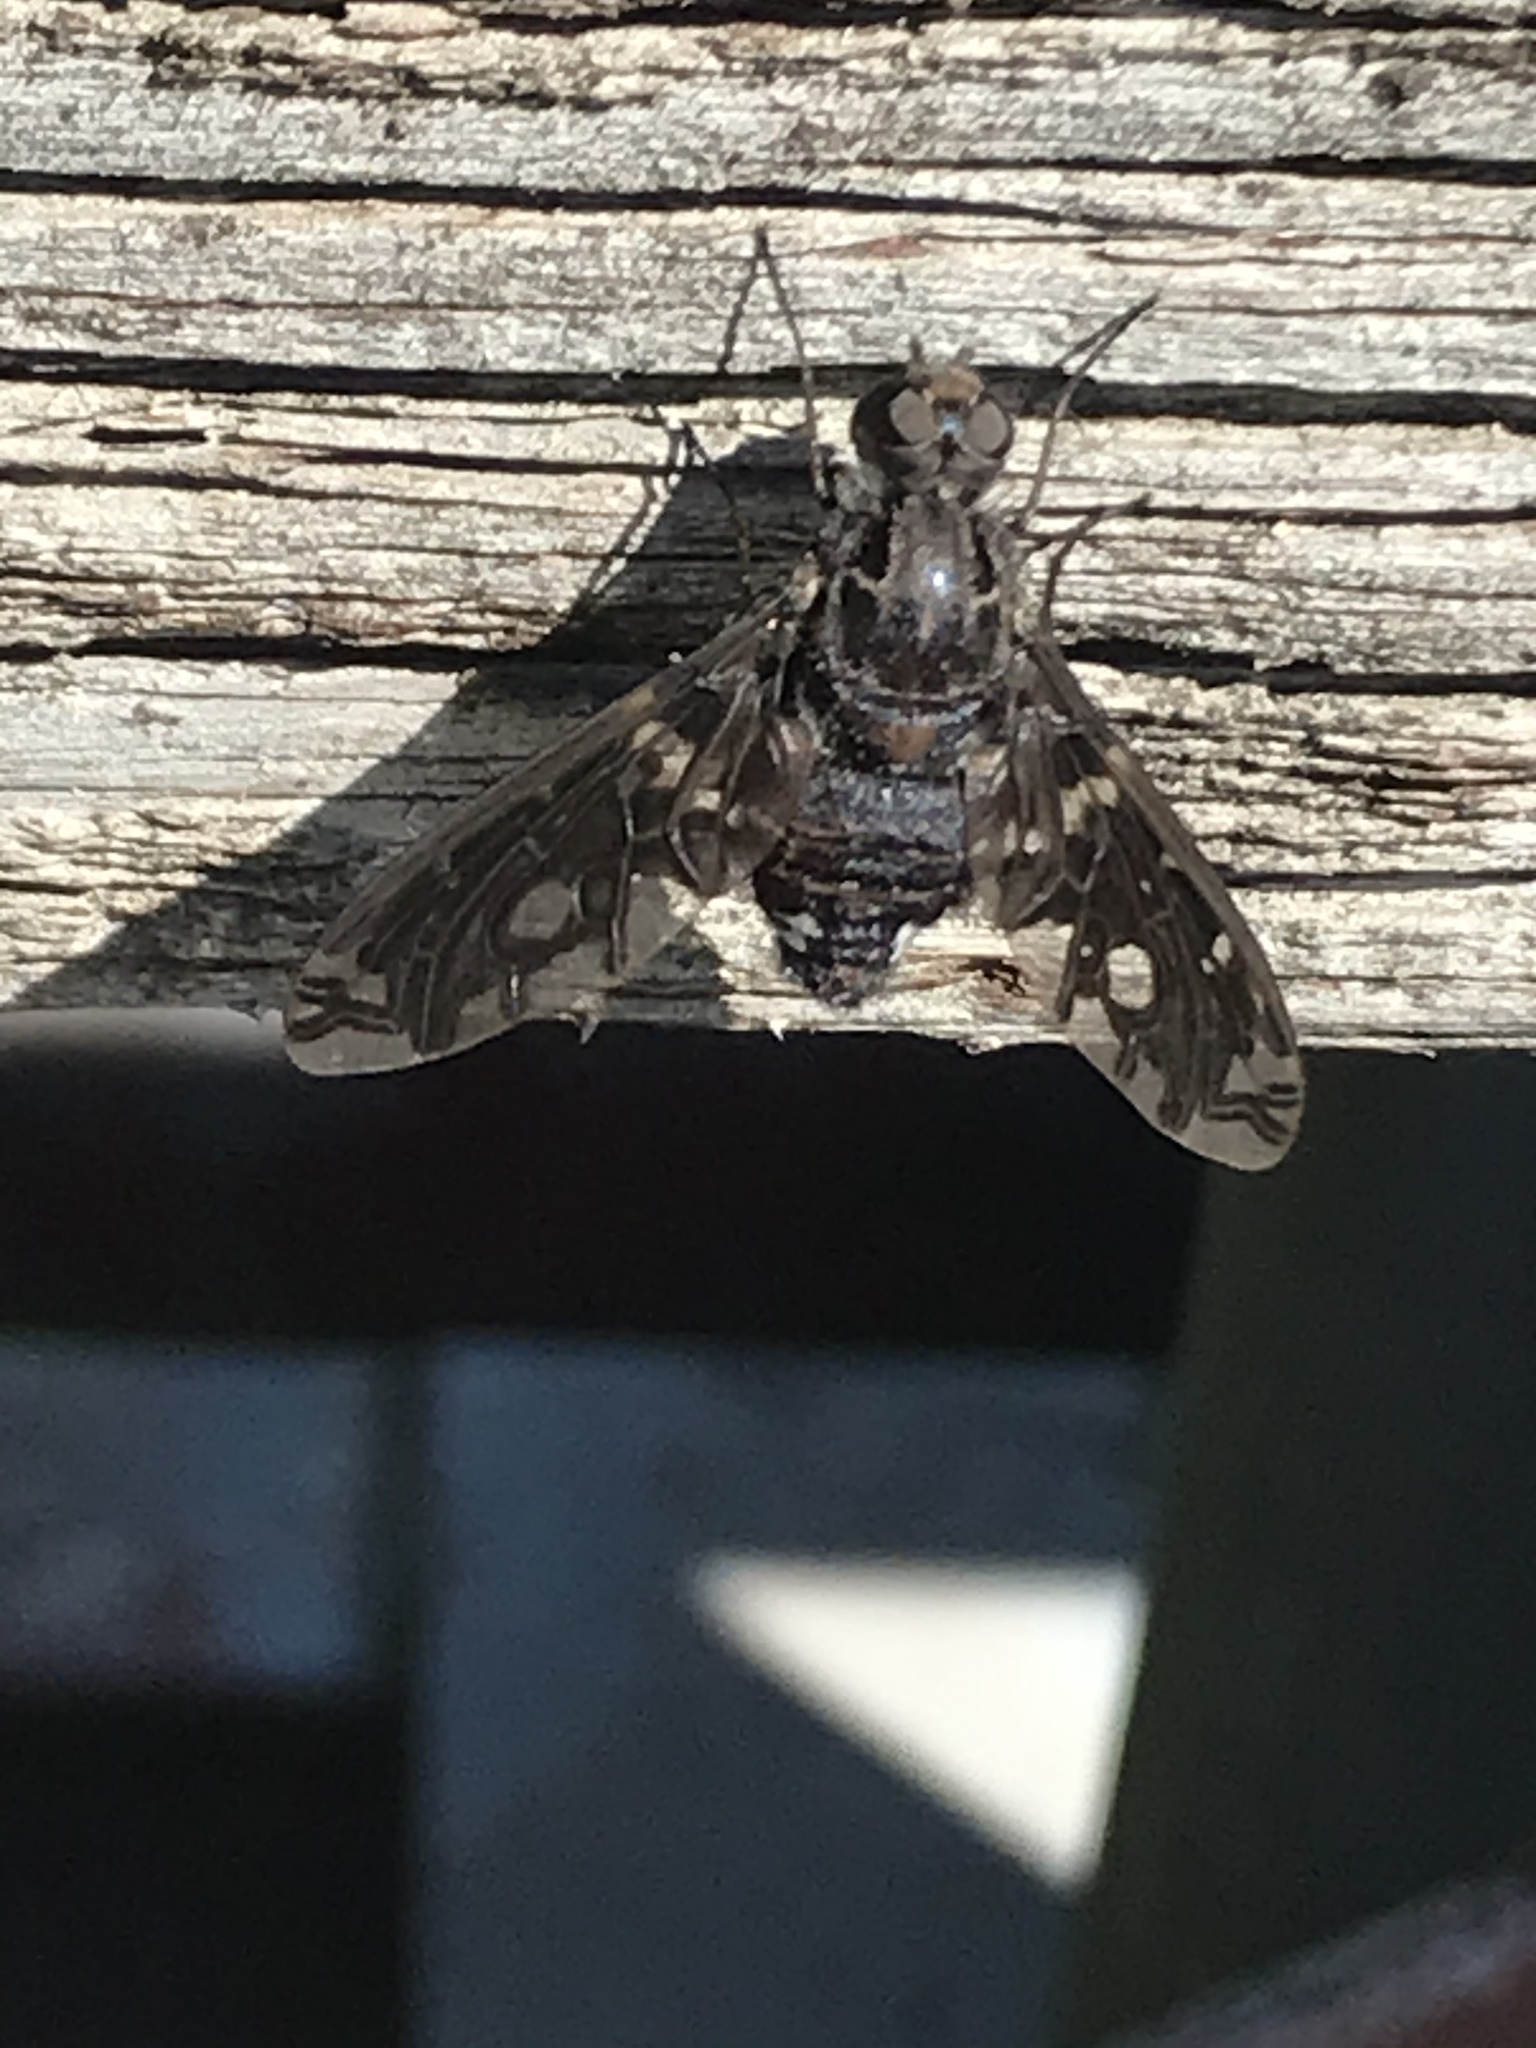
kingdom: Animalia
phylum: Arthropoda
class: Insecta
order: Diptera
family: Bombyliidae
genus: Xenox
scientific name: Xenox tigrinus
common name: Tiger bee fly
